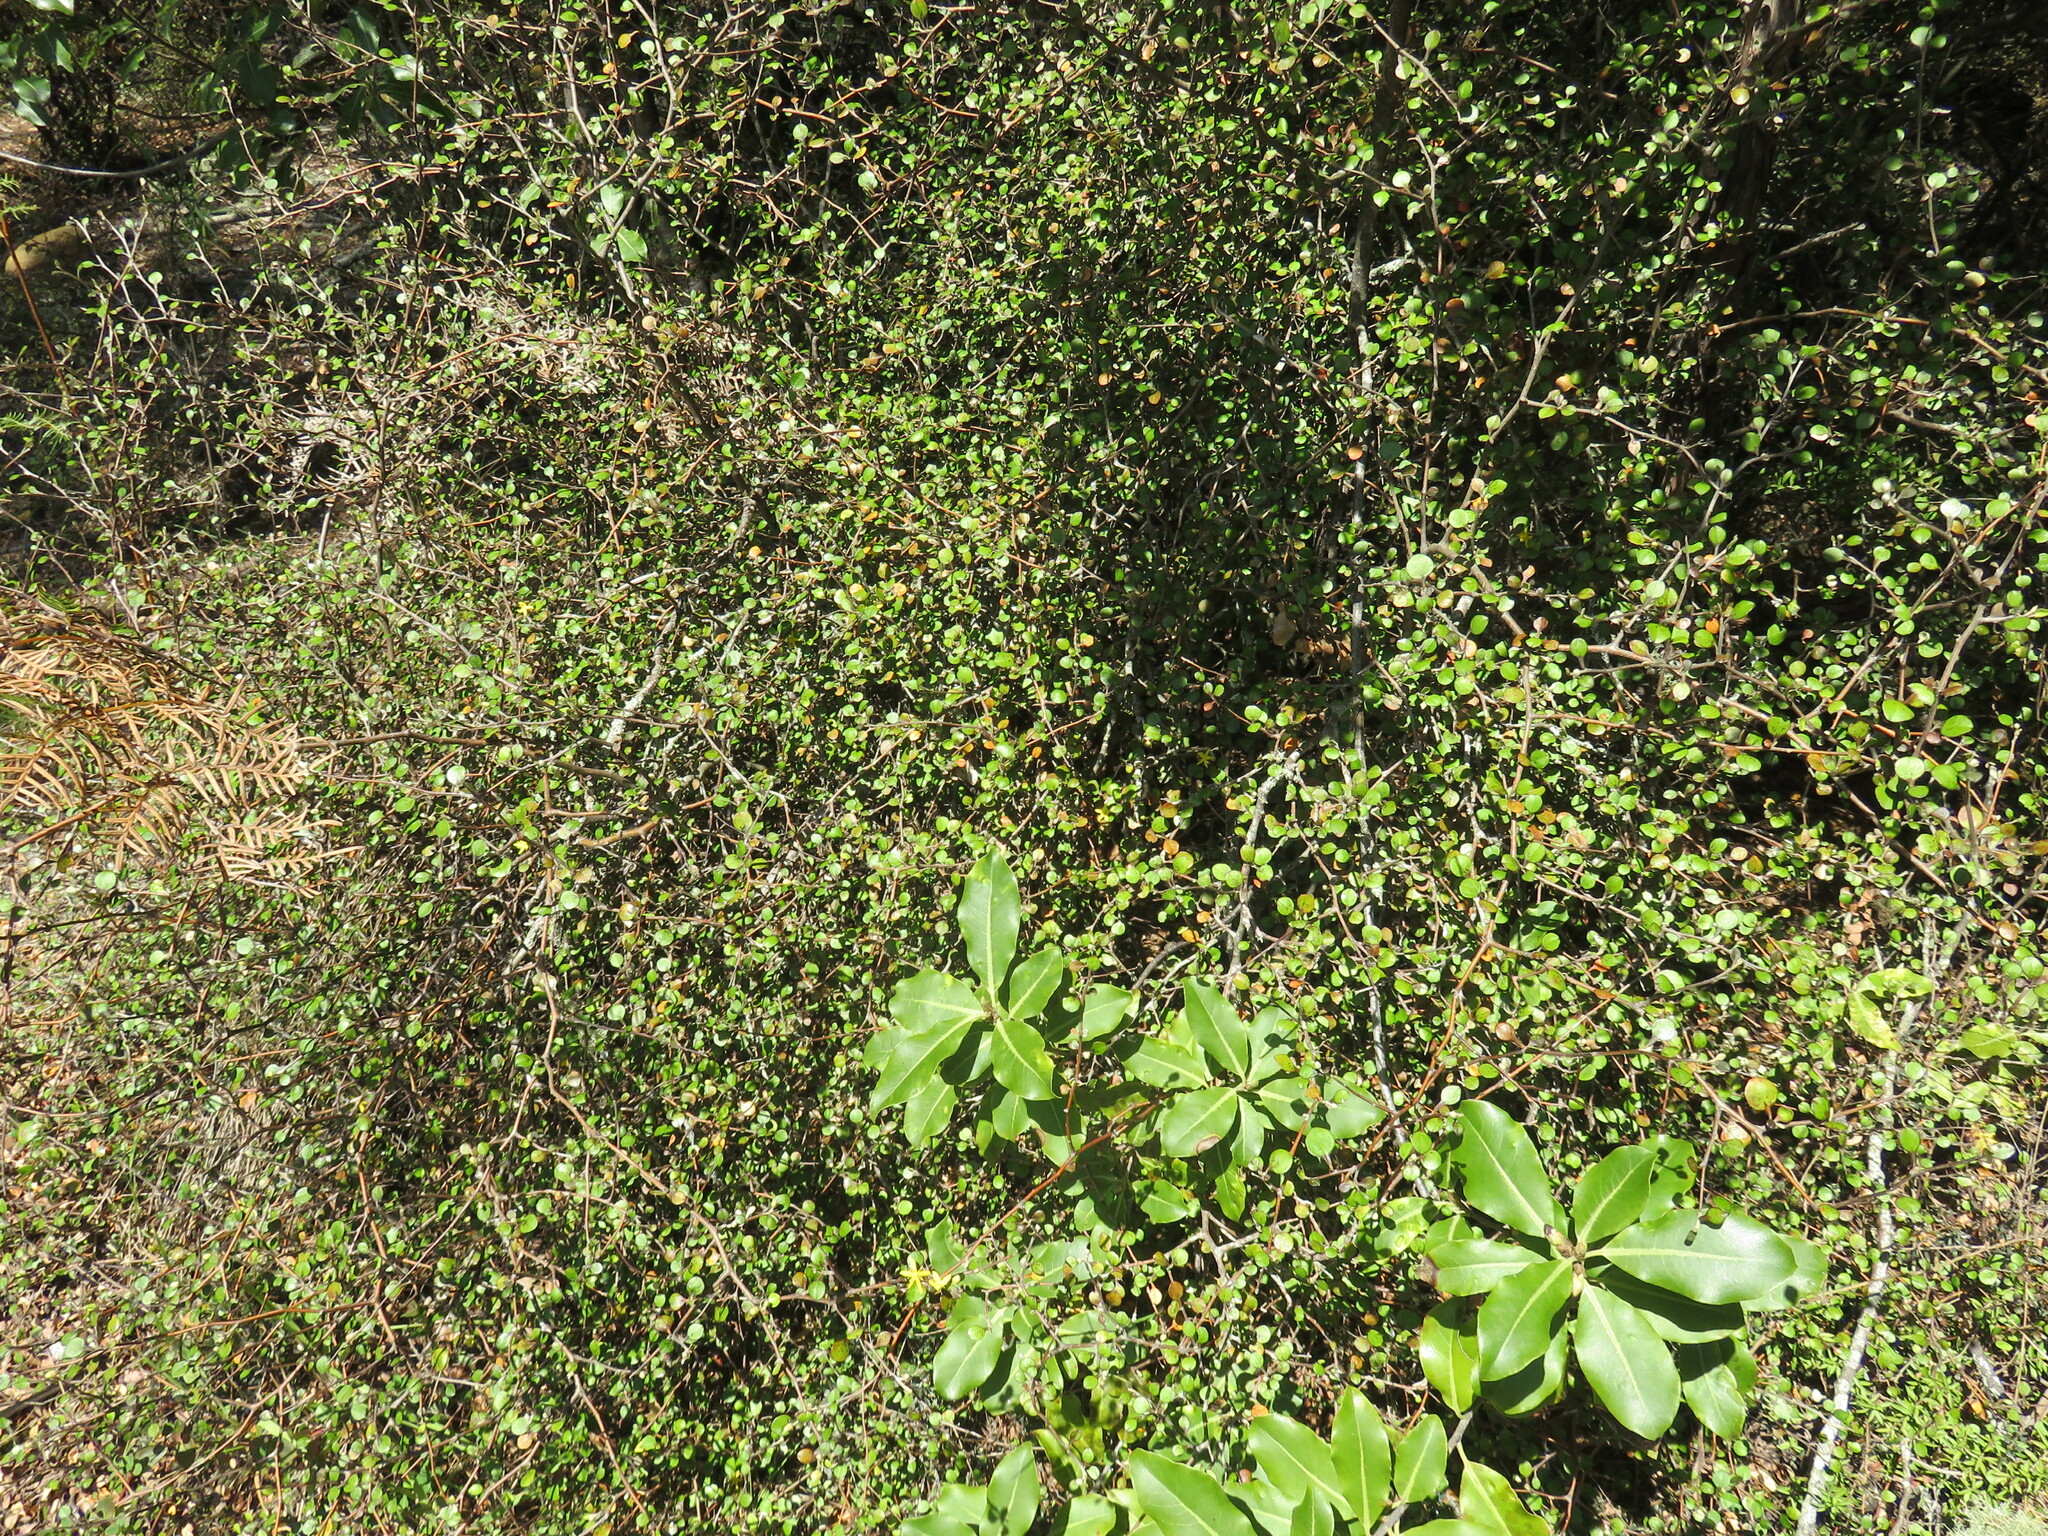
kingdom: Plantae
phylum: Tracheophyta
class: Magnoliopsida
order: Asterales
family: Argophyllaceae
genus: Corokia
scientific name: Corokia cotoneaster
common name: Wire nettingbush
